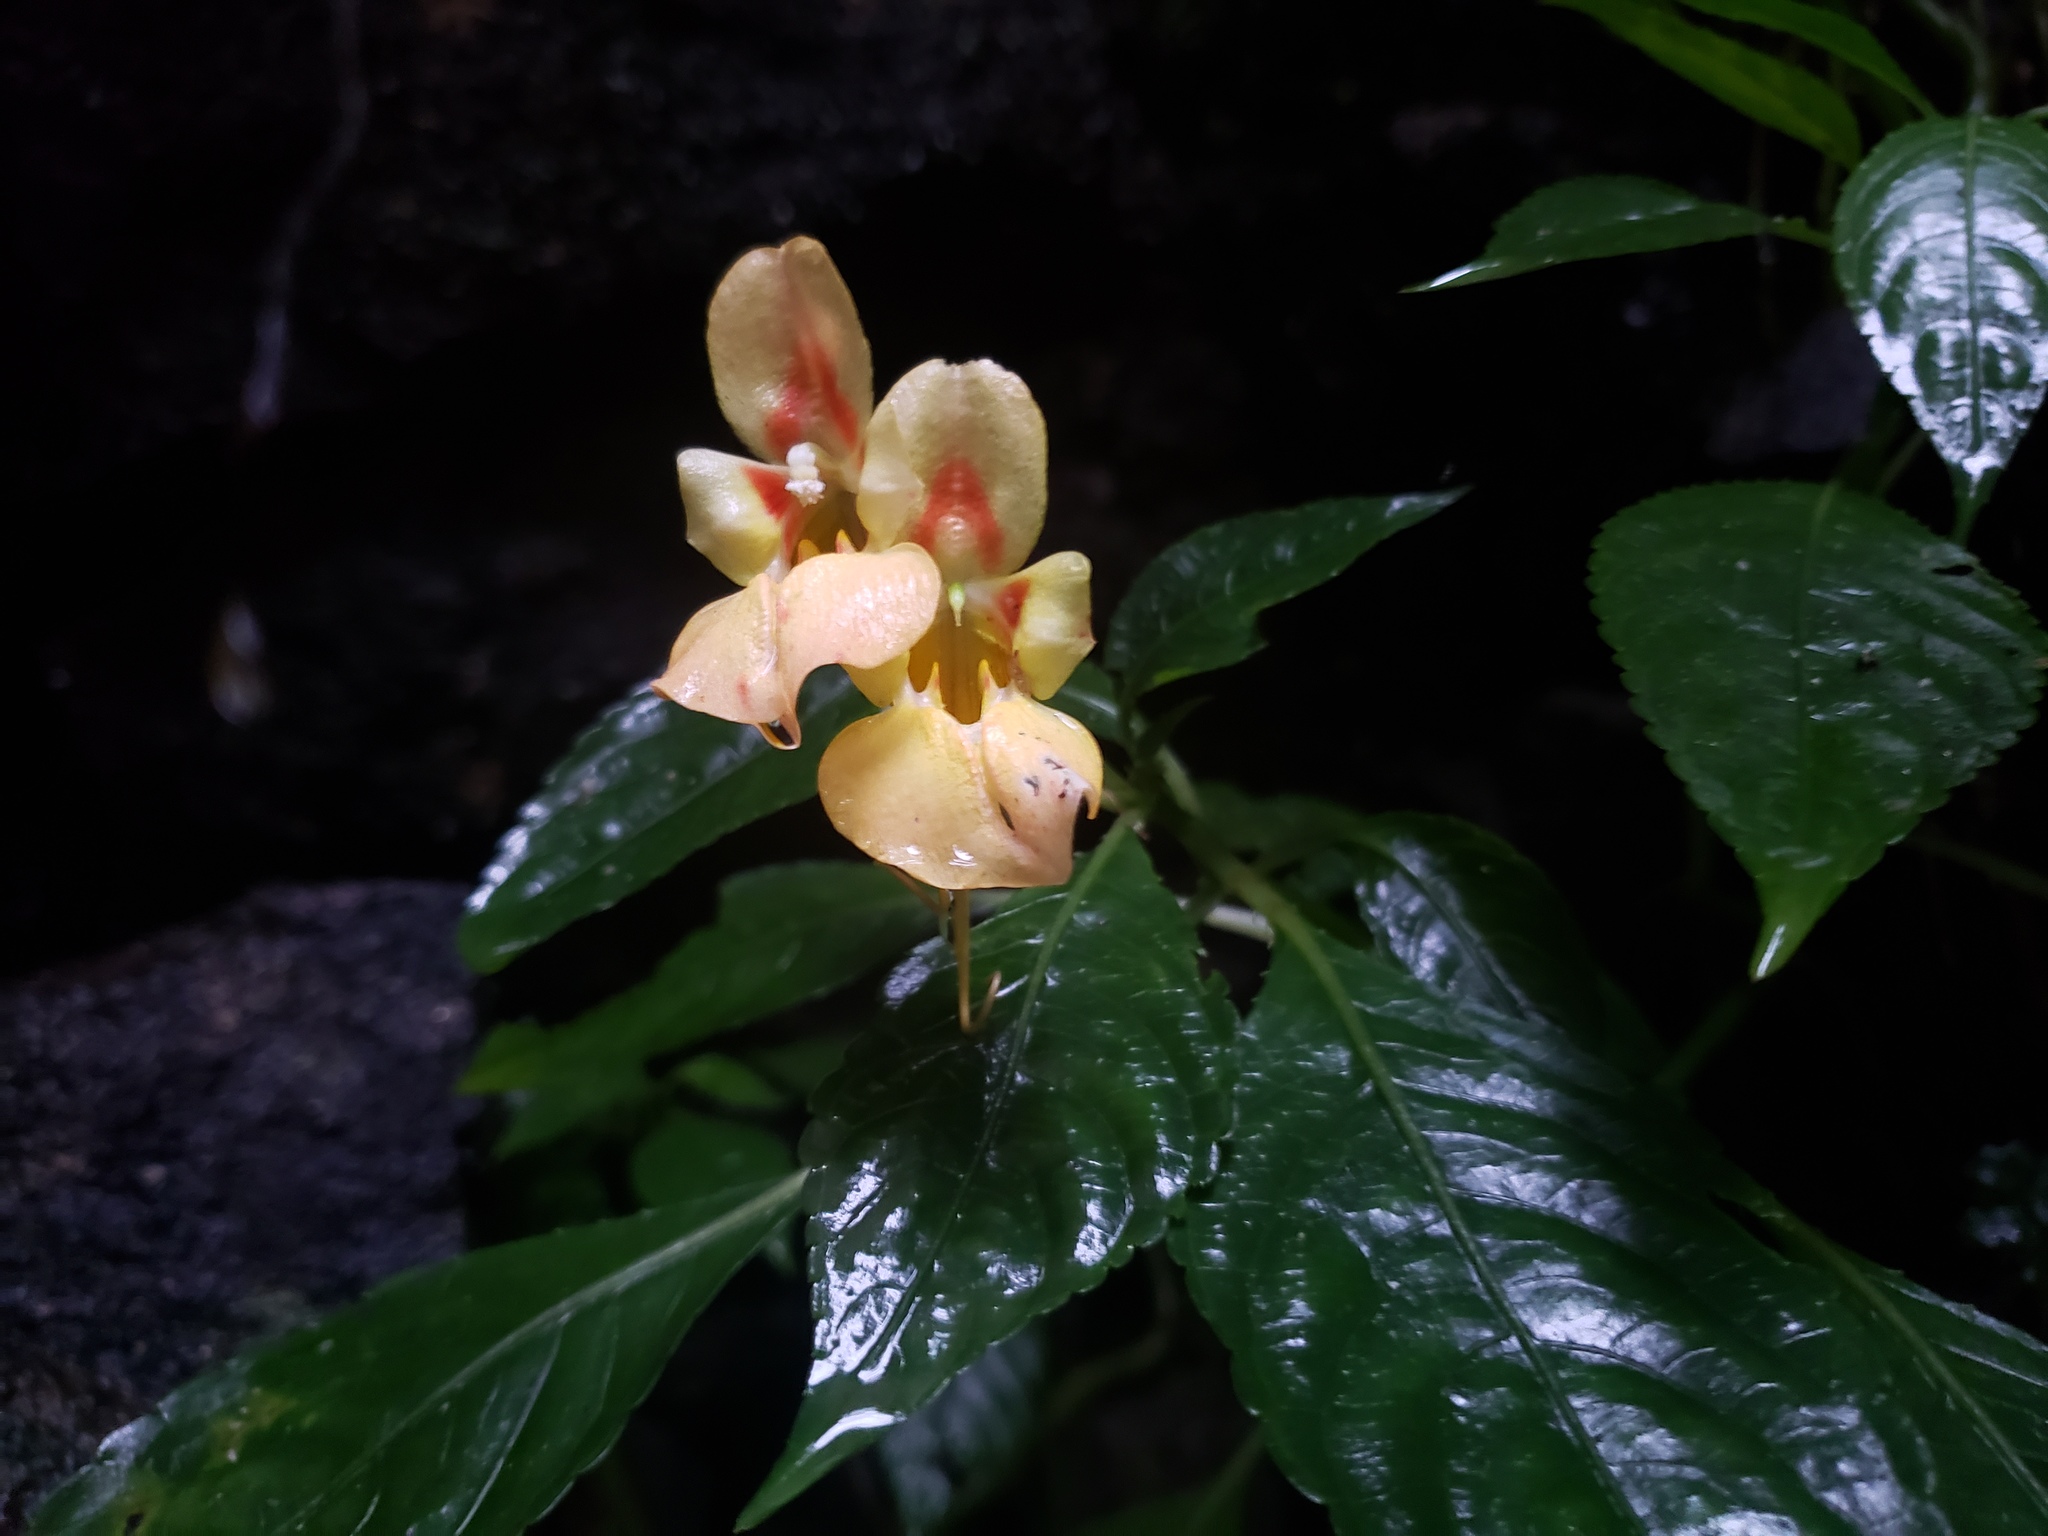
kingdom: Plantae
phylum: Tracheophyta
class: Magnoliopsida
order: Ericales
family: Balsaminaceae
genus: Impatiens
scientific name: Impatiens pulchra
